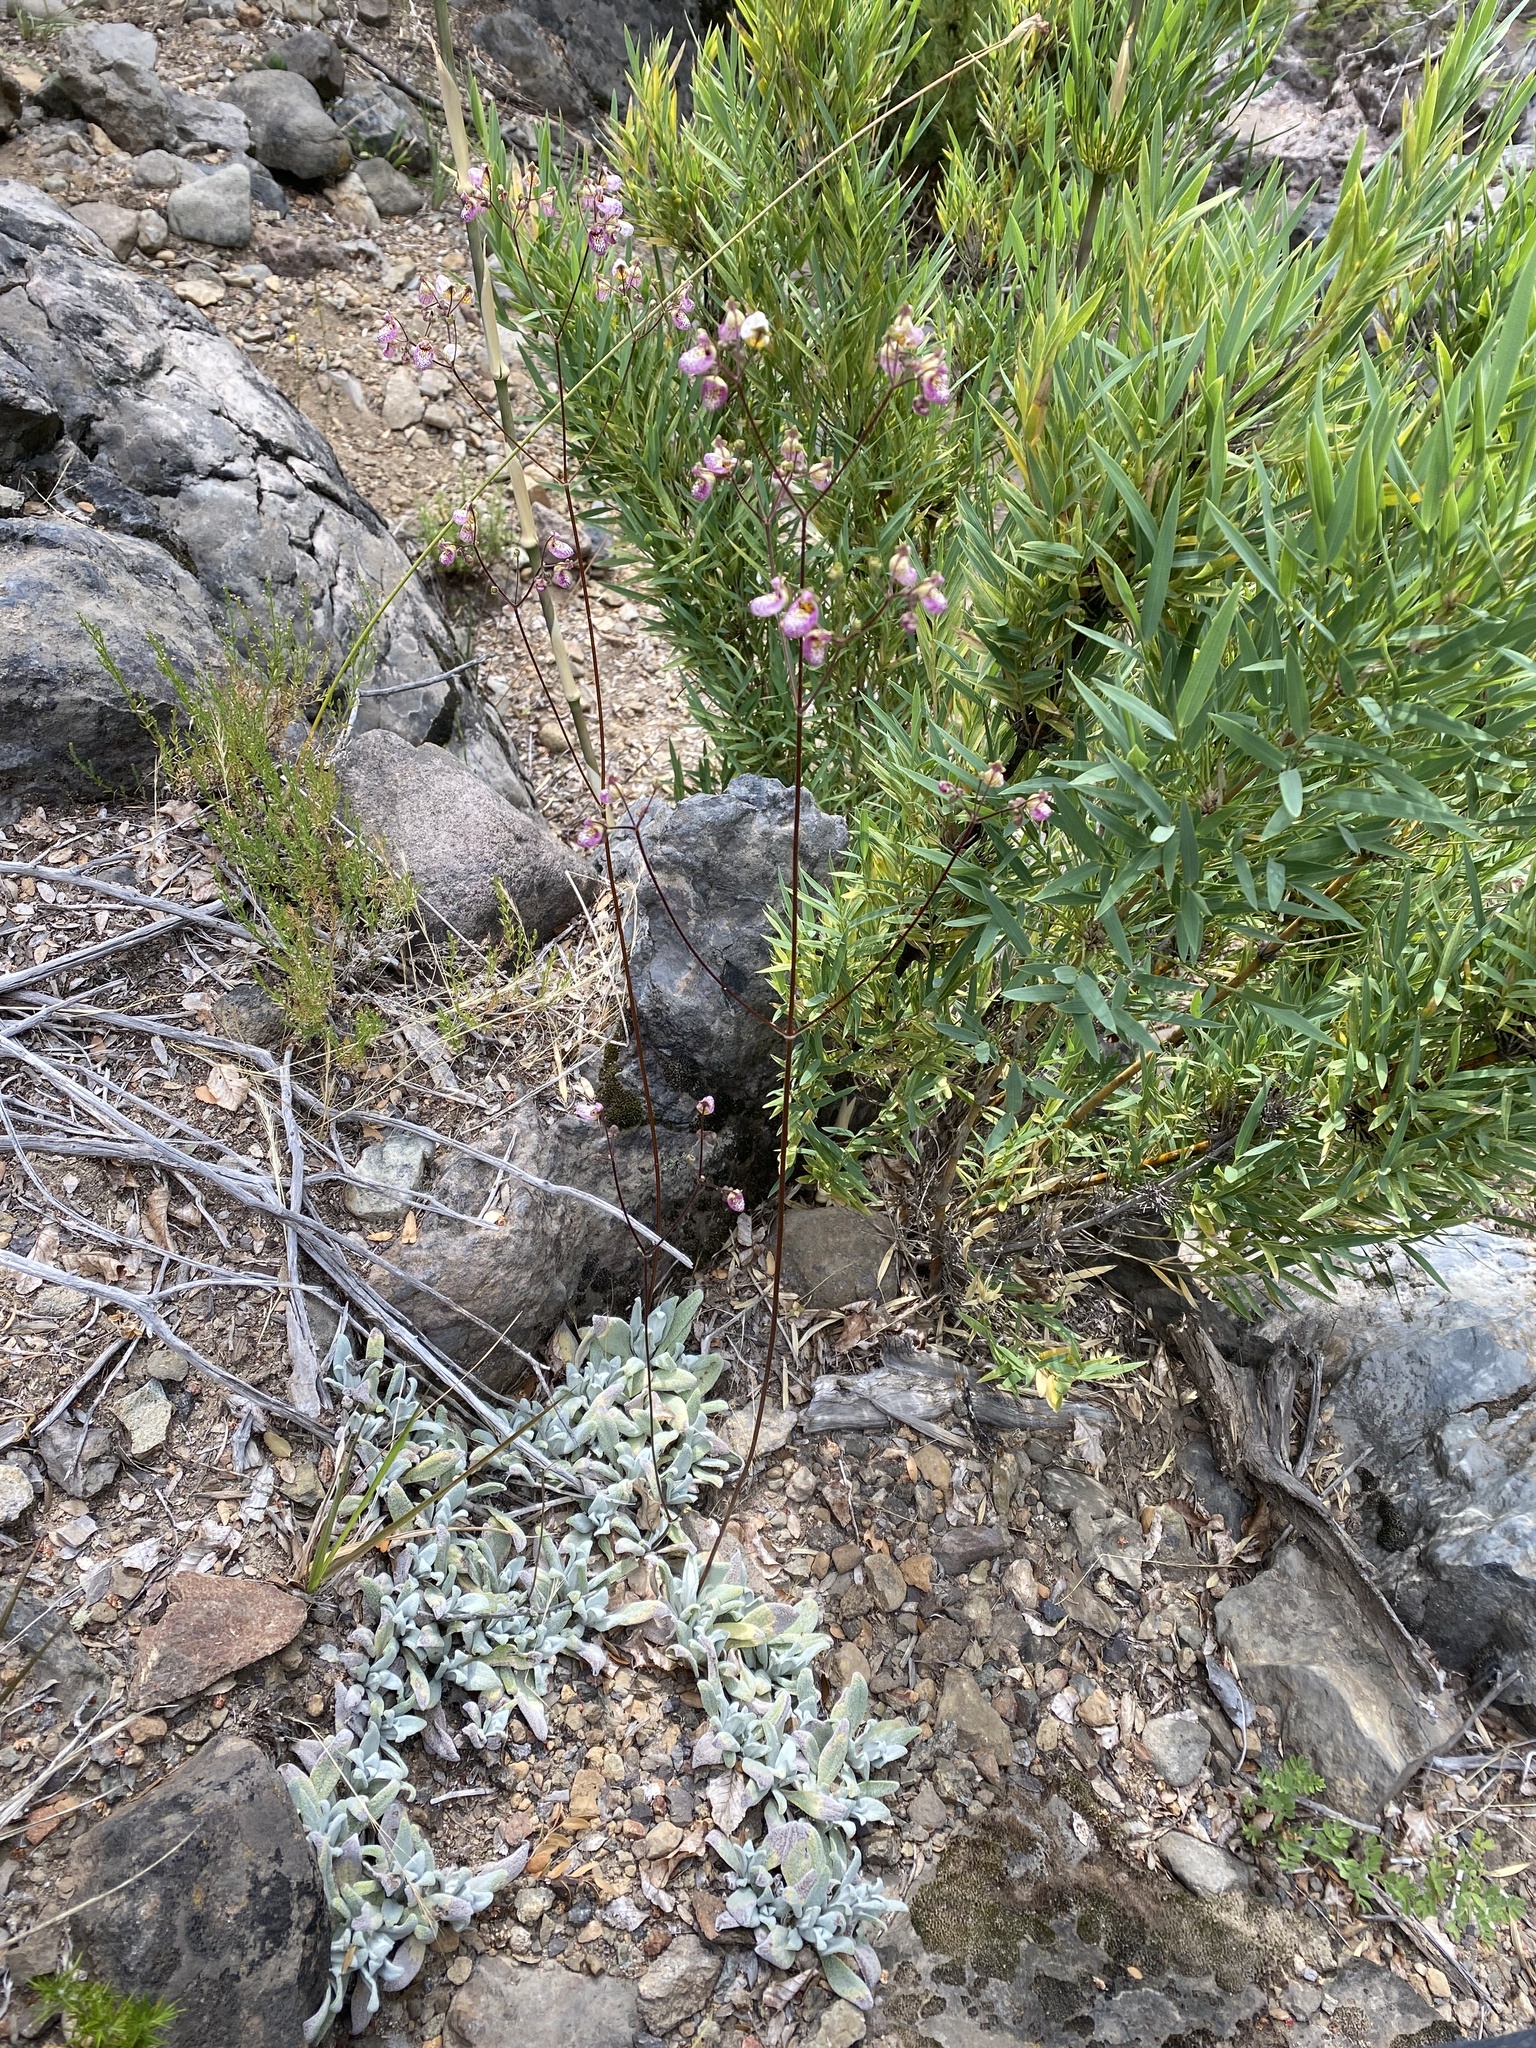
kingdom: Plantae
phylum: Tracheophyta
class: Magnoliopsida
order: Lamiales
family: Calceolariaceae
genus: Calceolaria
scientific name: Calceolaria cana
